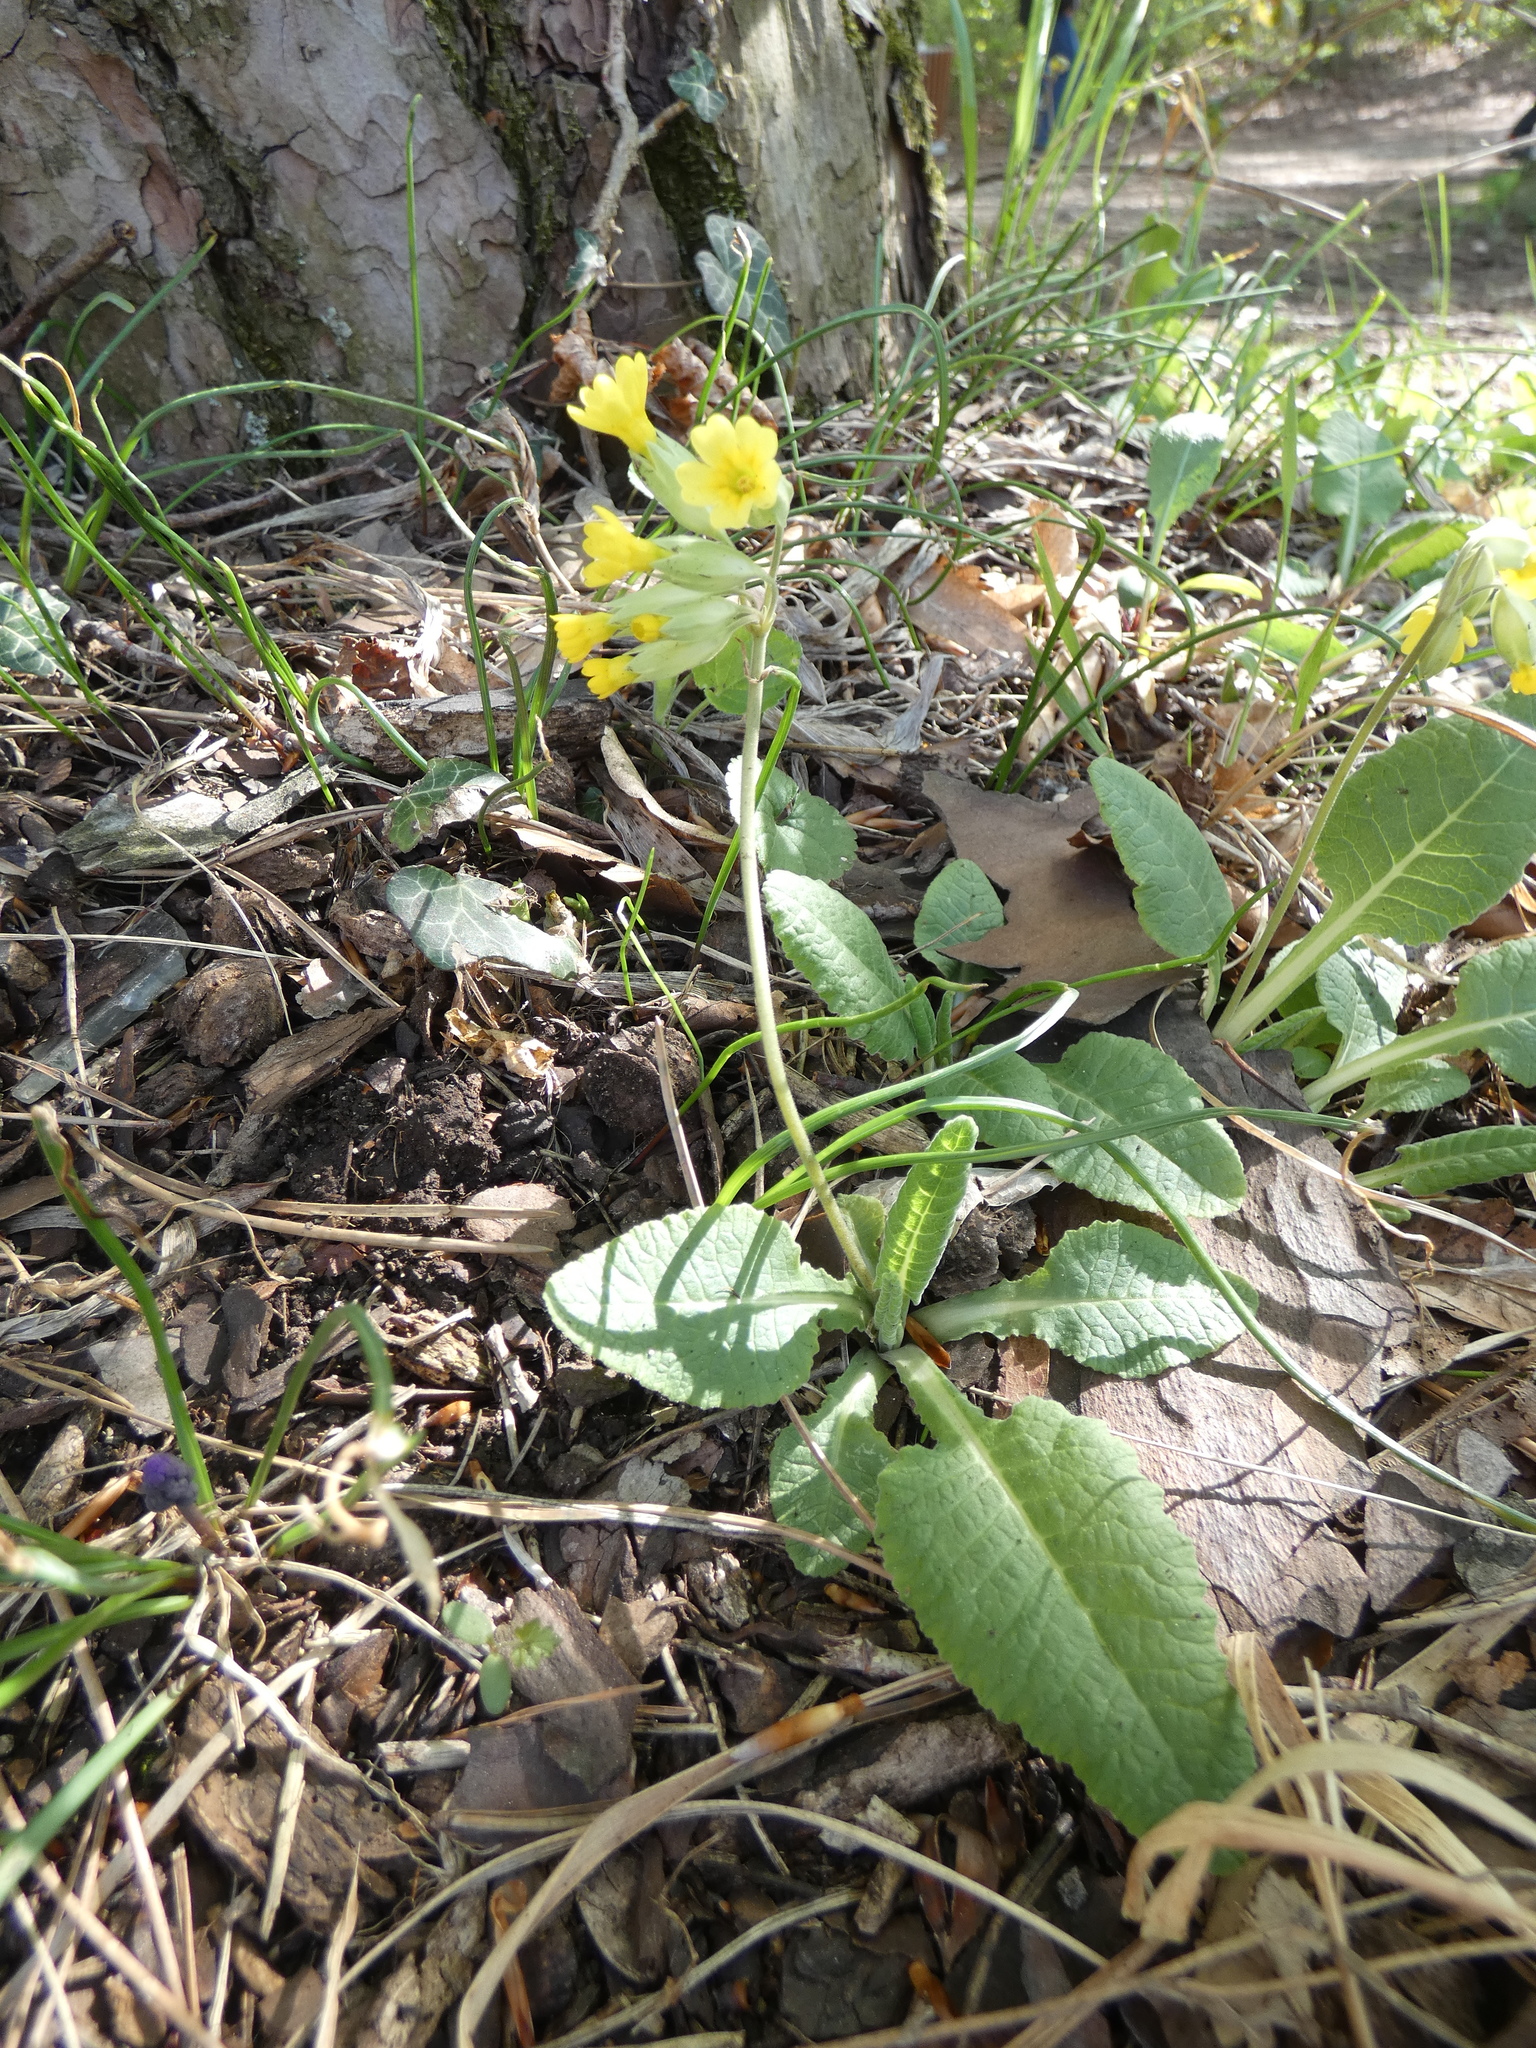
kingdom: Plantae
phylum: Tracheophyta
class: Magnoliopsida
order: Ericales
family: Primulaceae
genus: Primula
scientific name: Primula veris
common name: Cowslip
